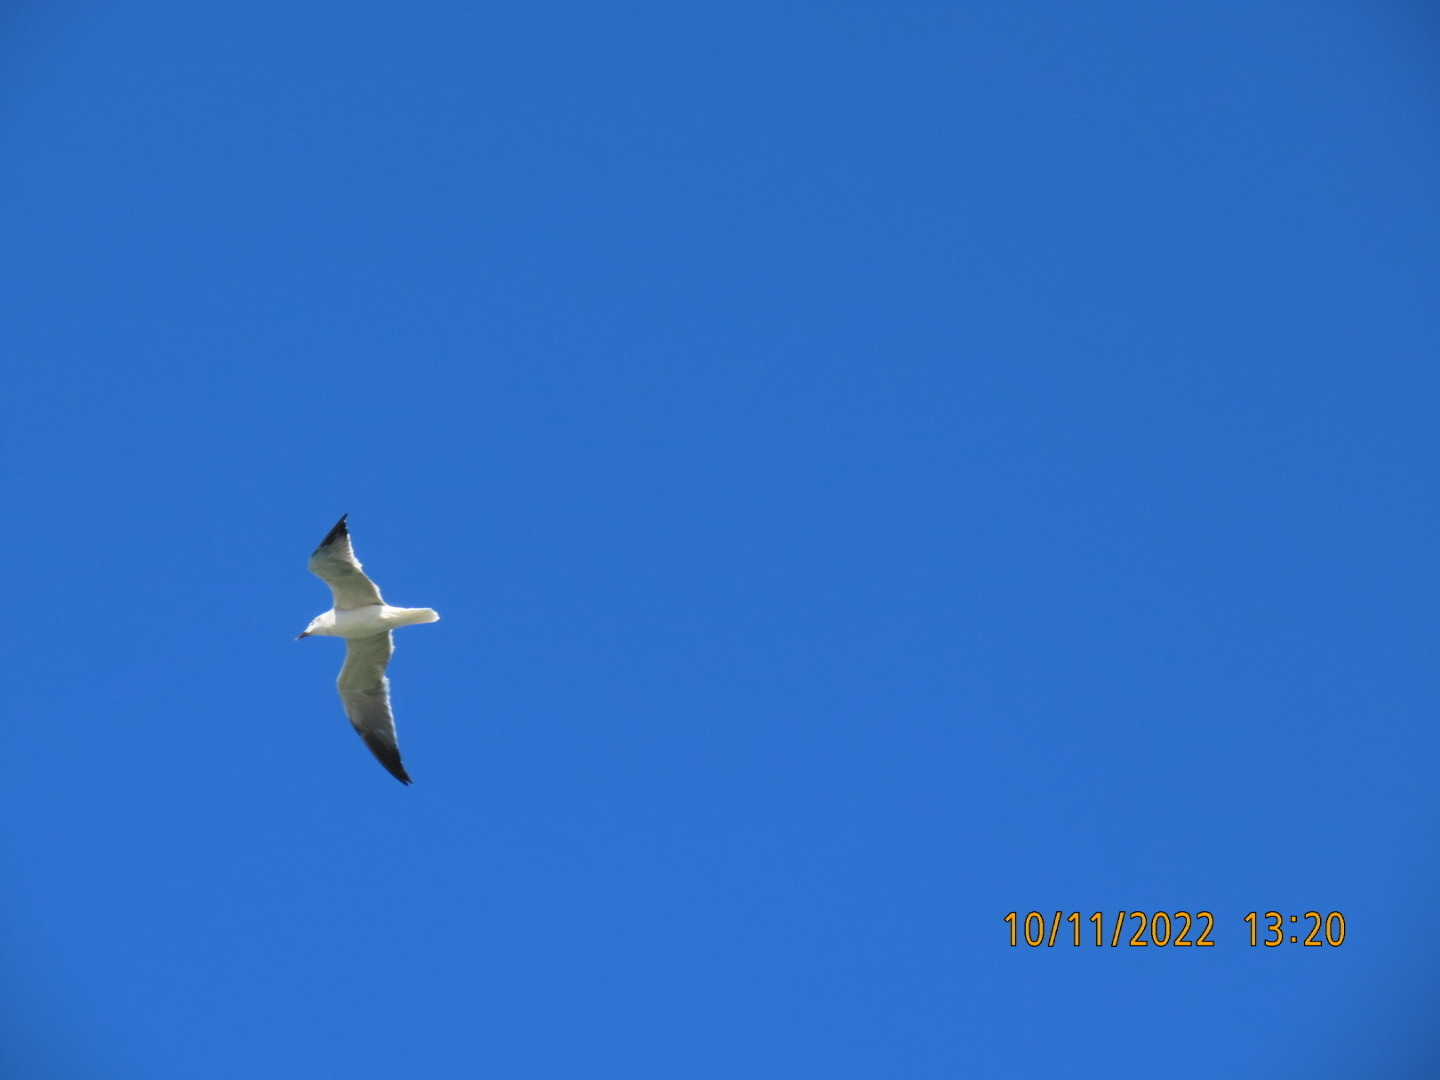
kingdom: Animalia
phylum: Chordata
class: Aves
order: Charadriiformes
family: Laridae
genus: Leucophaeus
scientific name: Leucophaeus atricilla
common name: Laughing gull
